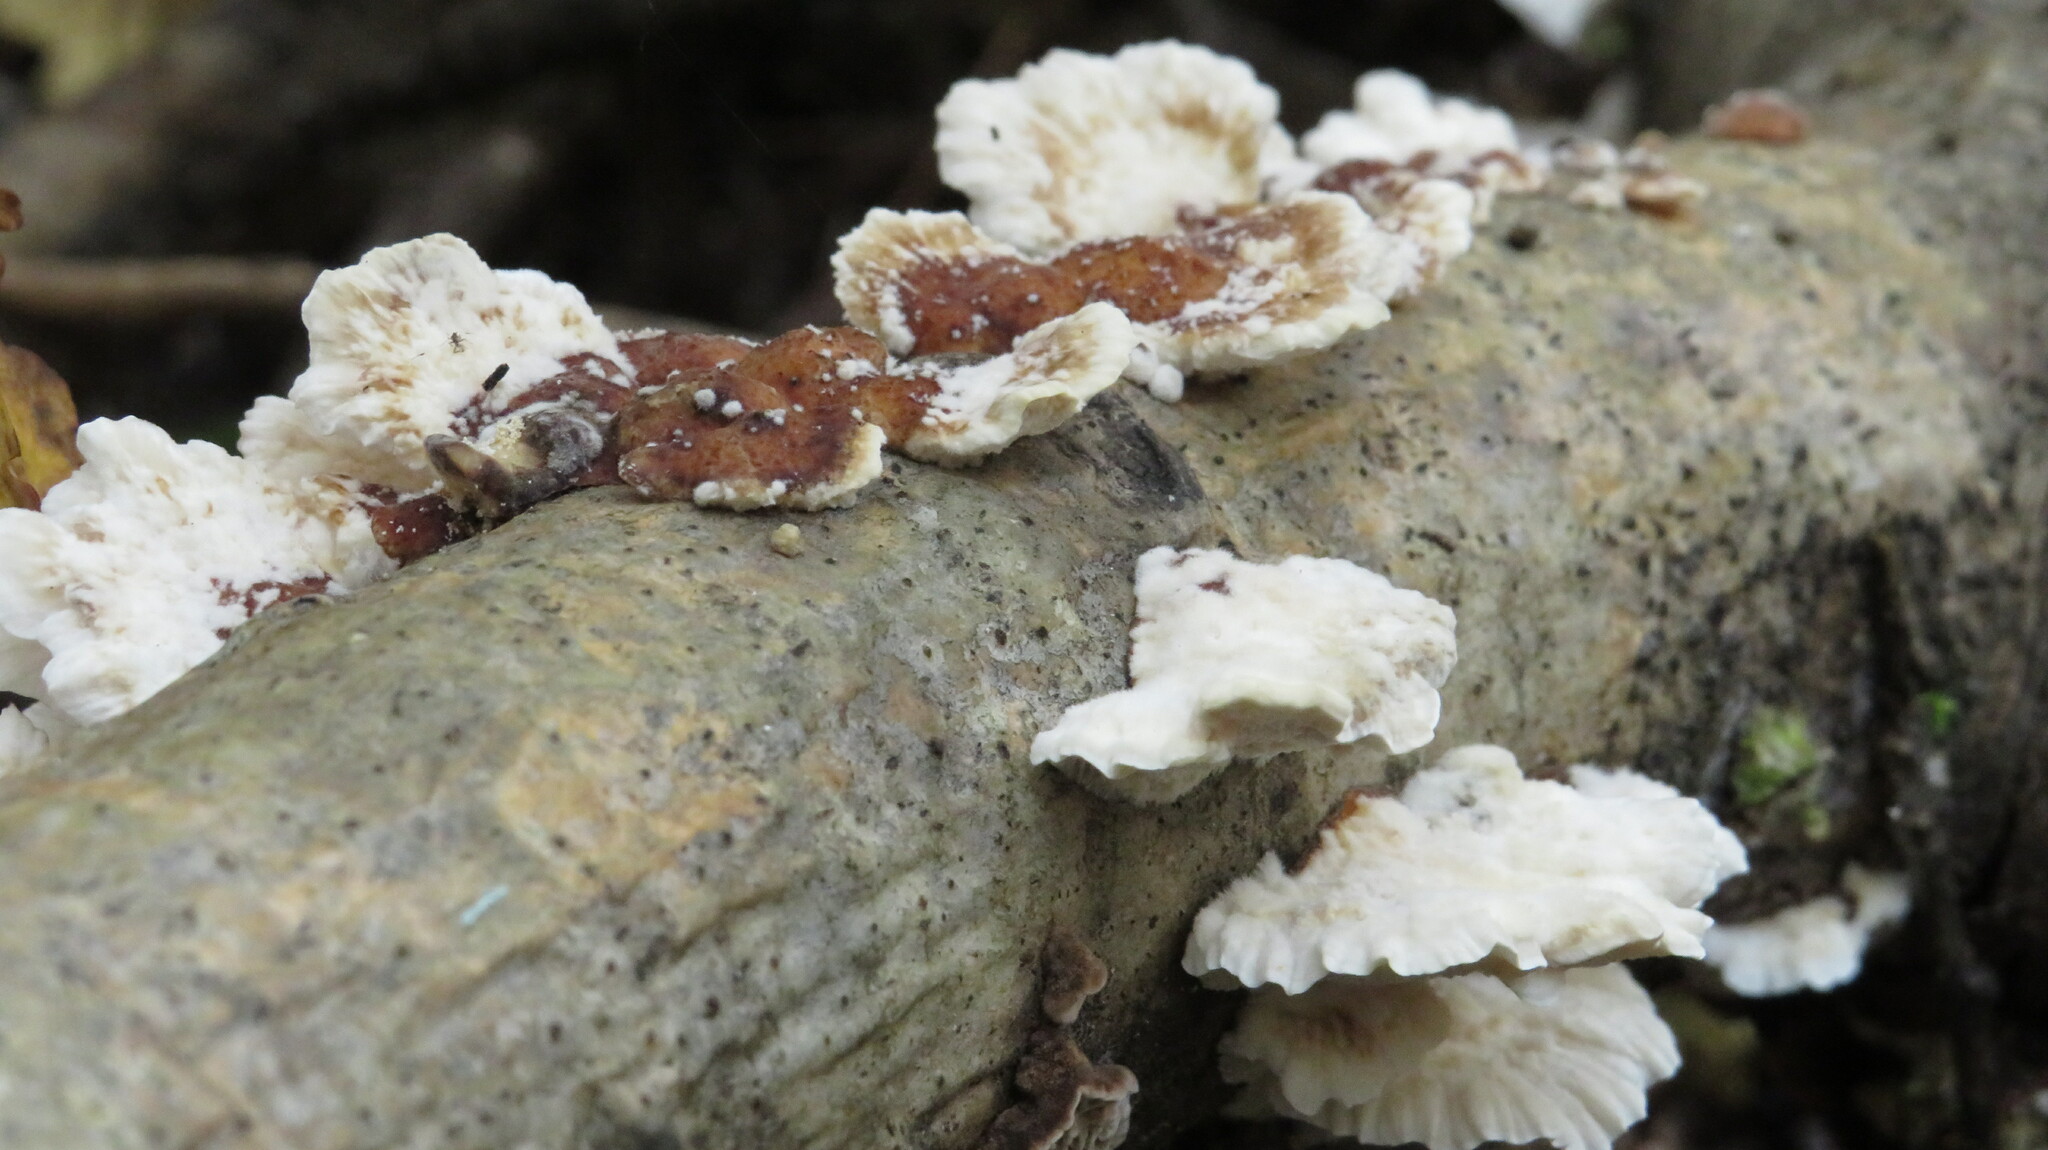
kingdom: Fungi
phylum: Basidiomycota
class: Agaricomycetes
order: Polyporales
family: Polyporaceae
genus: Trametes
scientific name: Trametes ochracea
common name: Ochre bracket
